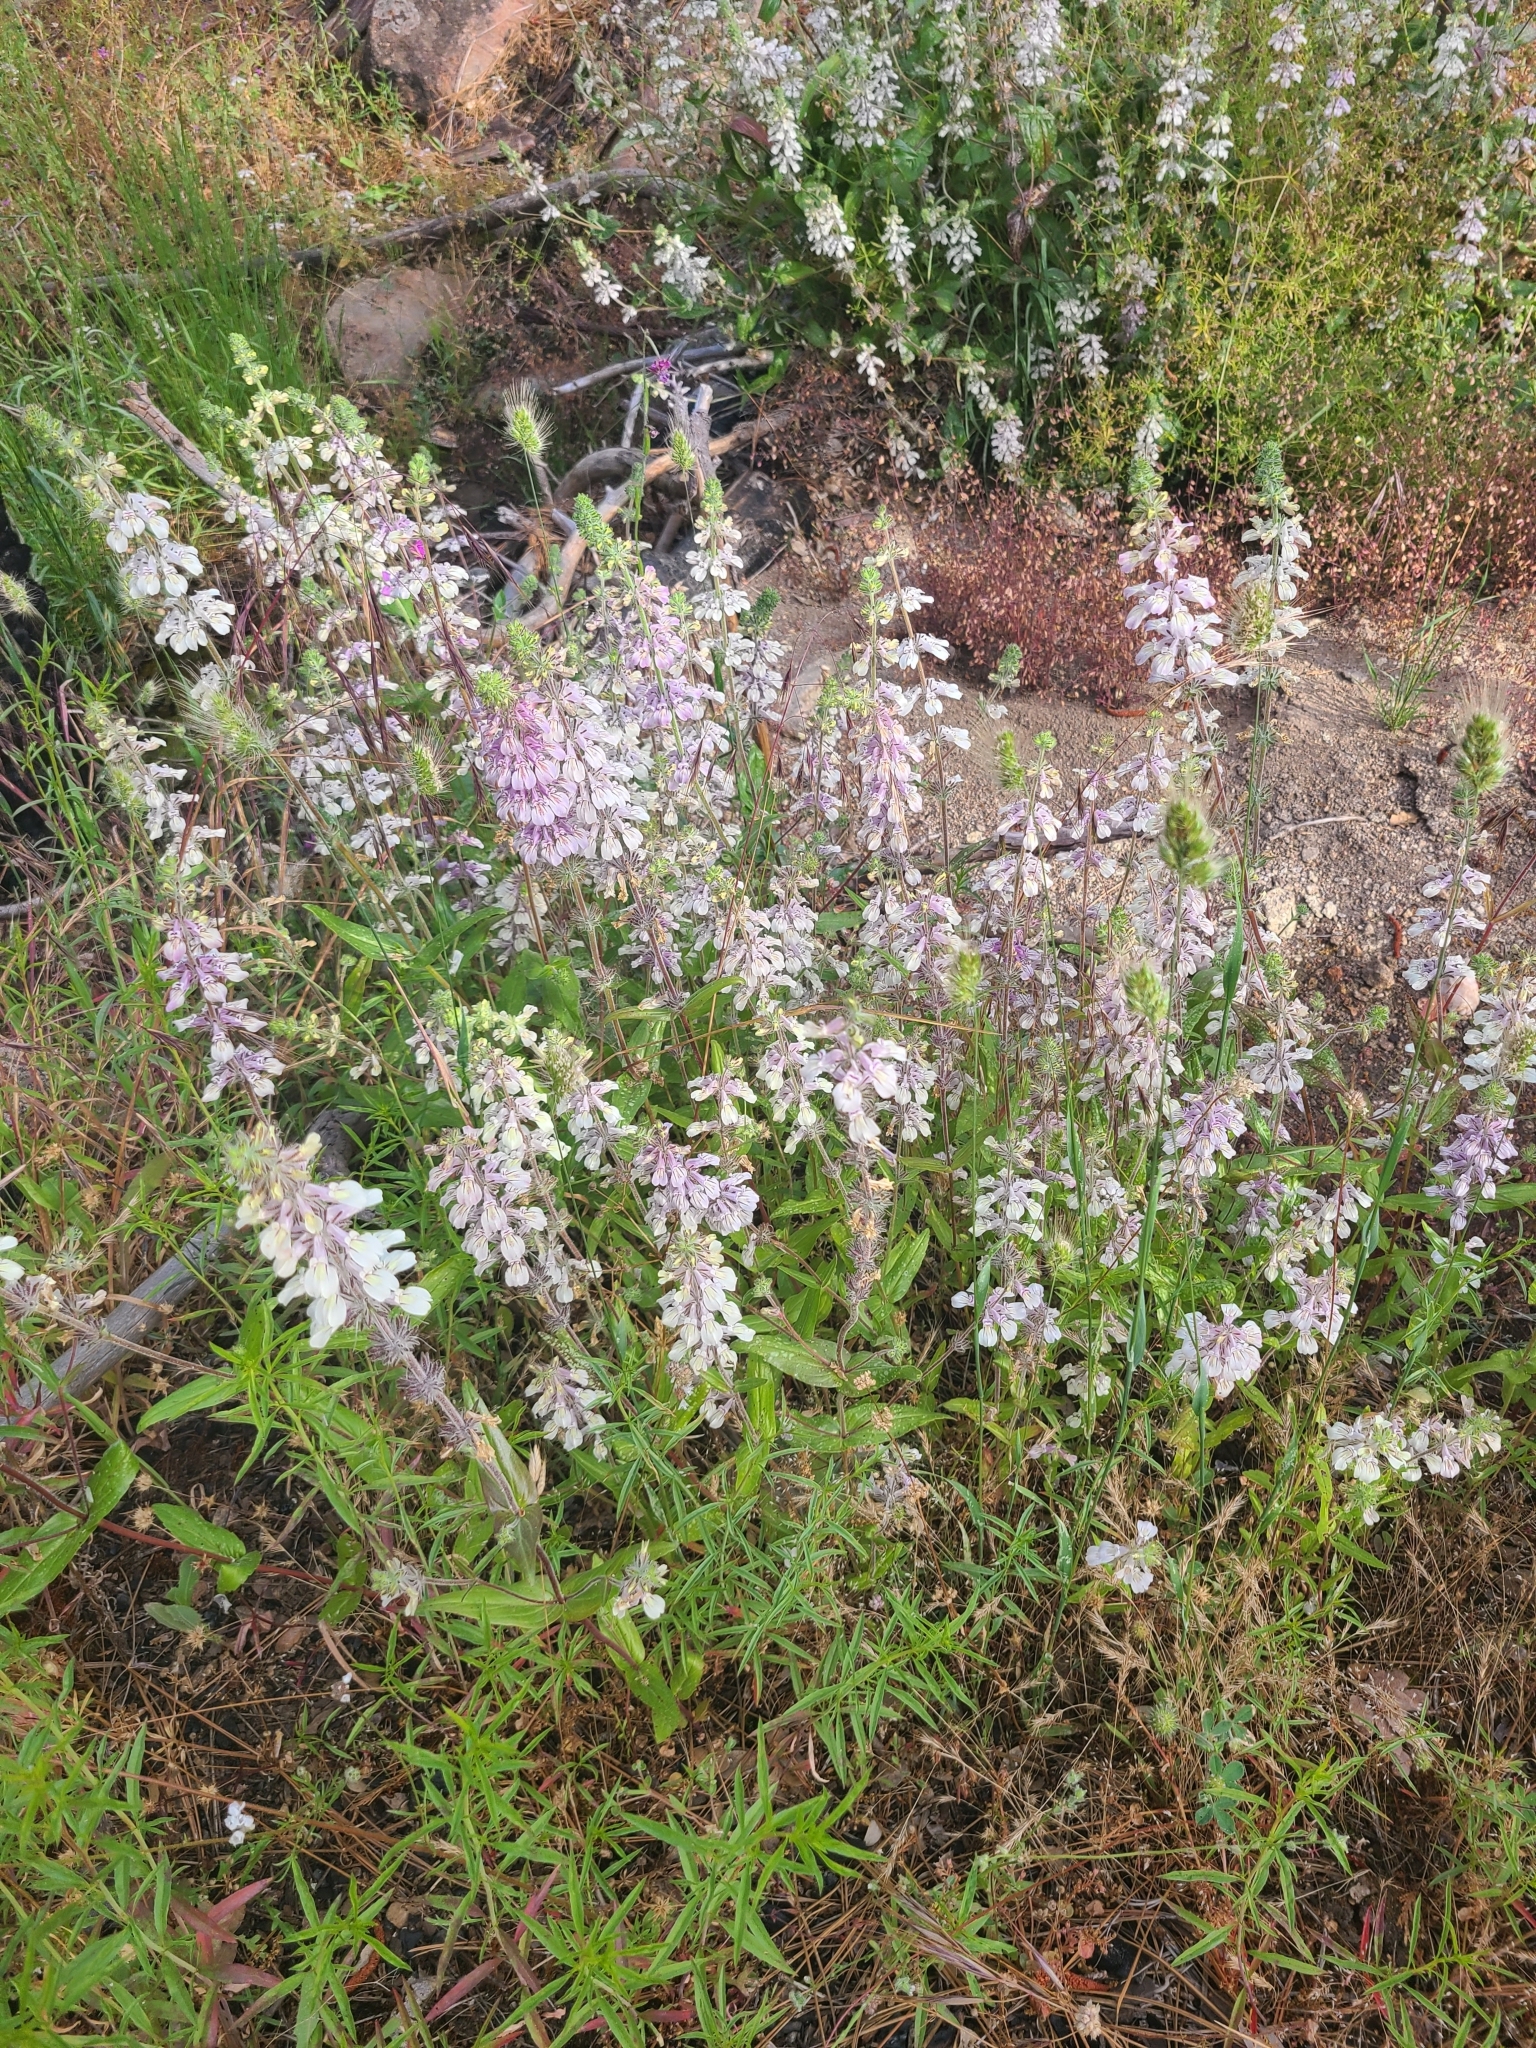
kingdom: Plantae
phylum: Tracheophyta
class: Magnoliopsida
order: Lamiales
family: Plantaginaceae
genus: Collinsia
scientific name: Collinsia tinctoria
